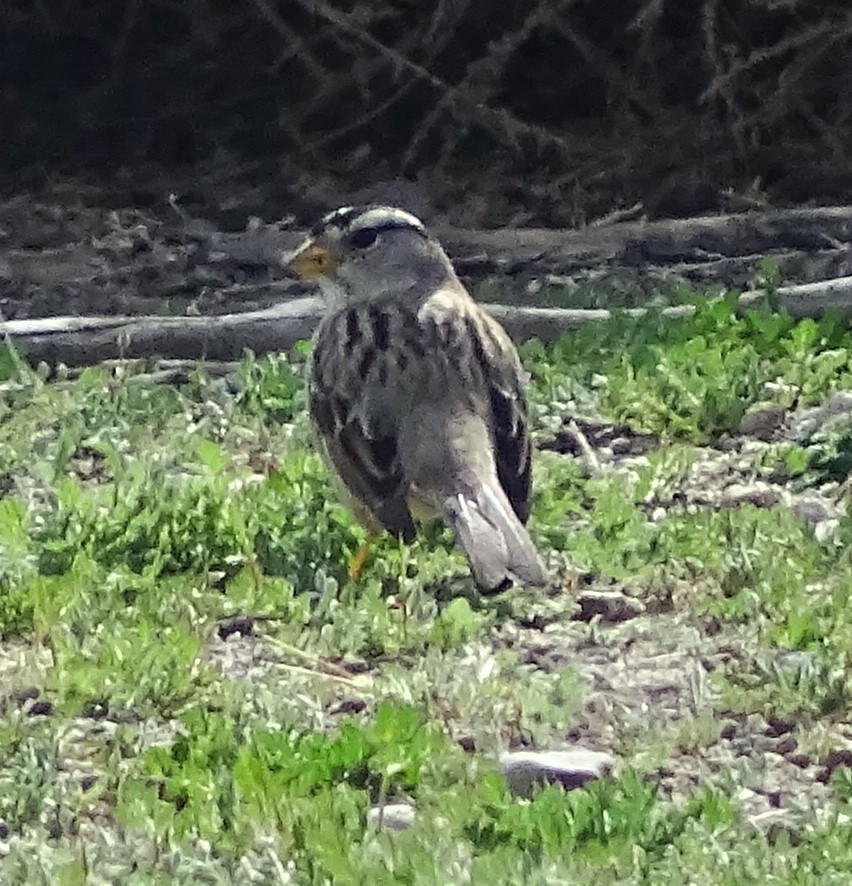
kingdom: Animalia
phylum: Chordata
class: Aves
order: Passeriformes
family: Passerellidae
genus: Zonotrichia
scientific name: Zonotrichia leucophrys
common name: White-crowned sparrow
